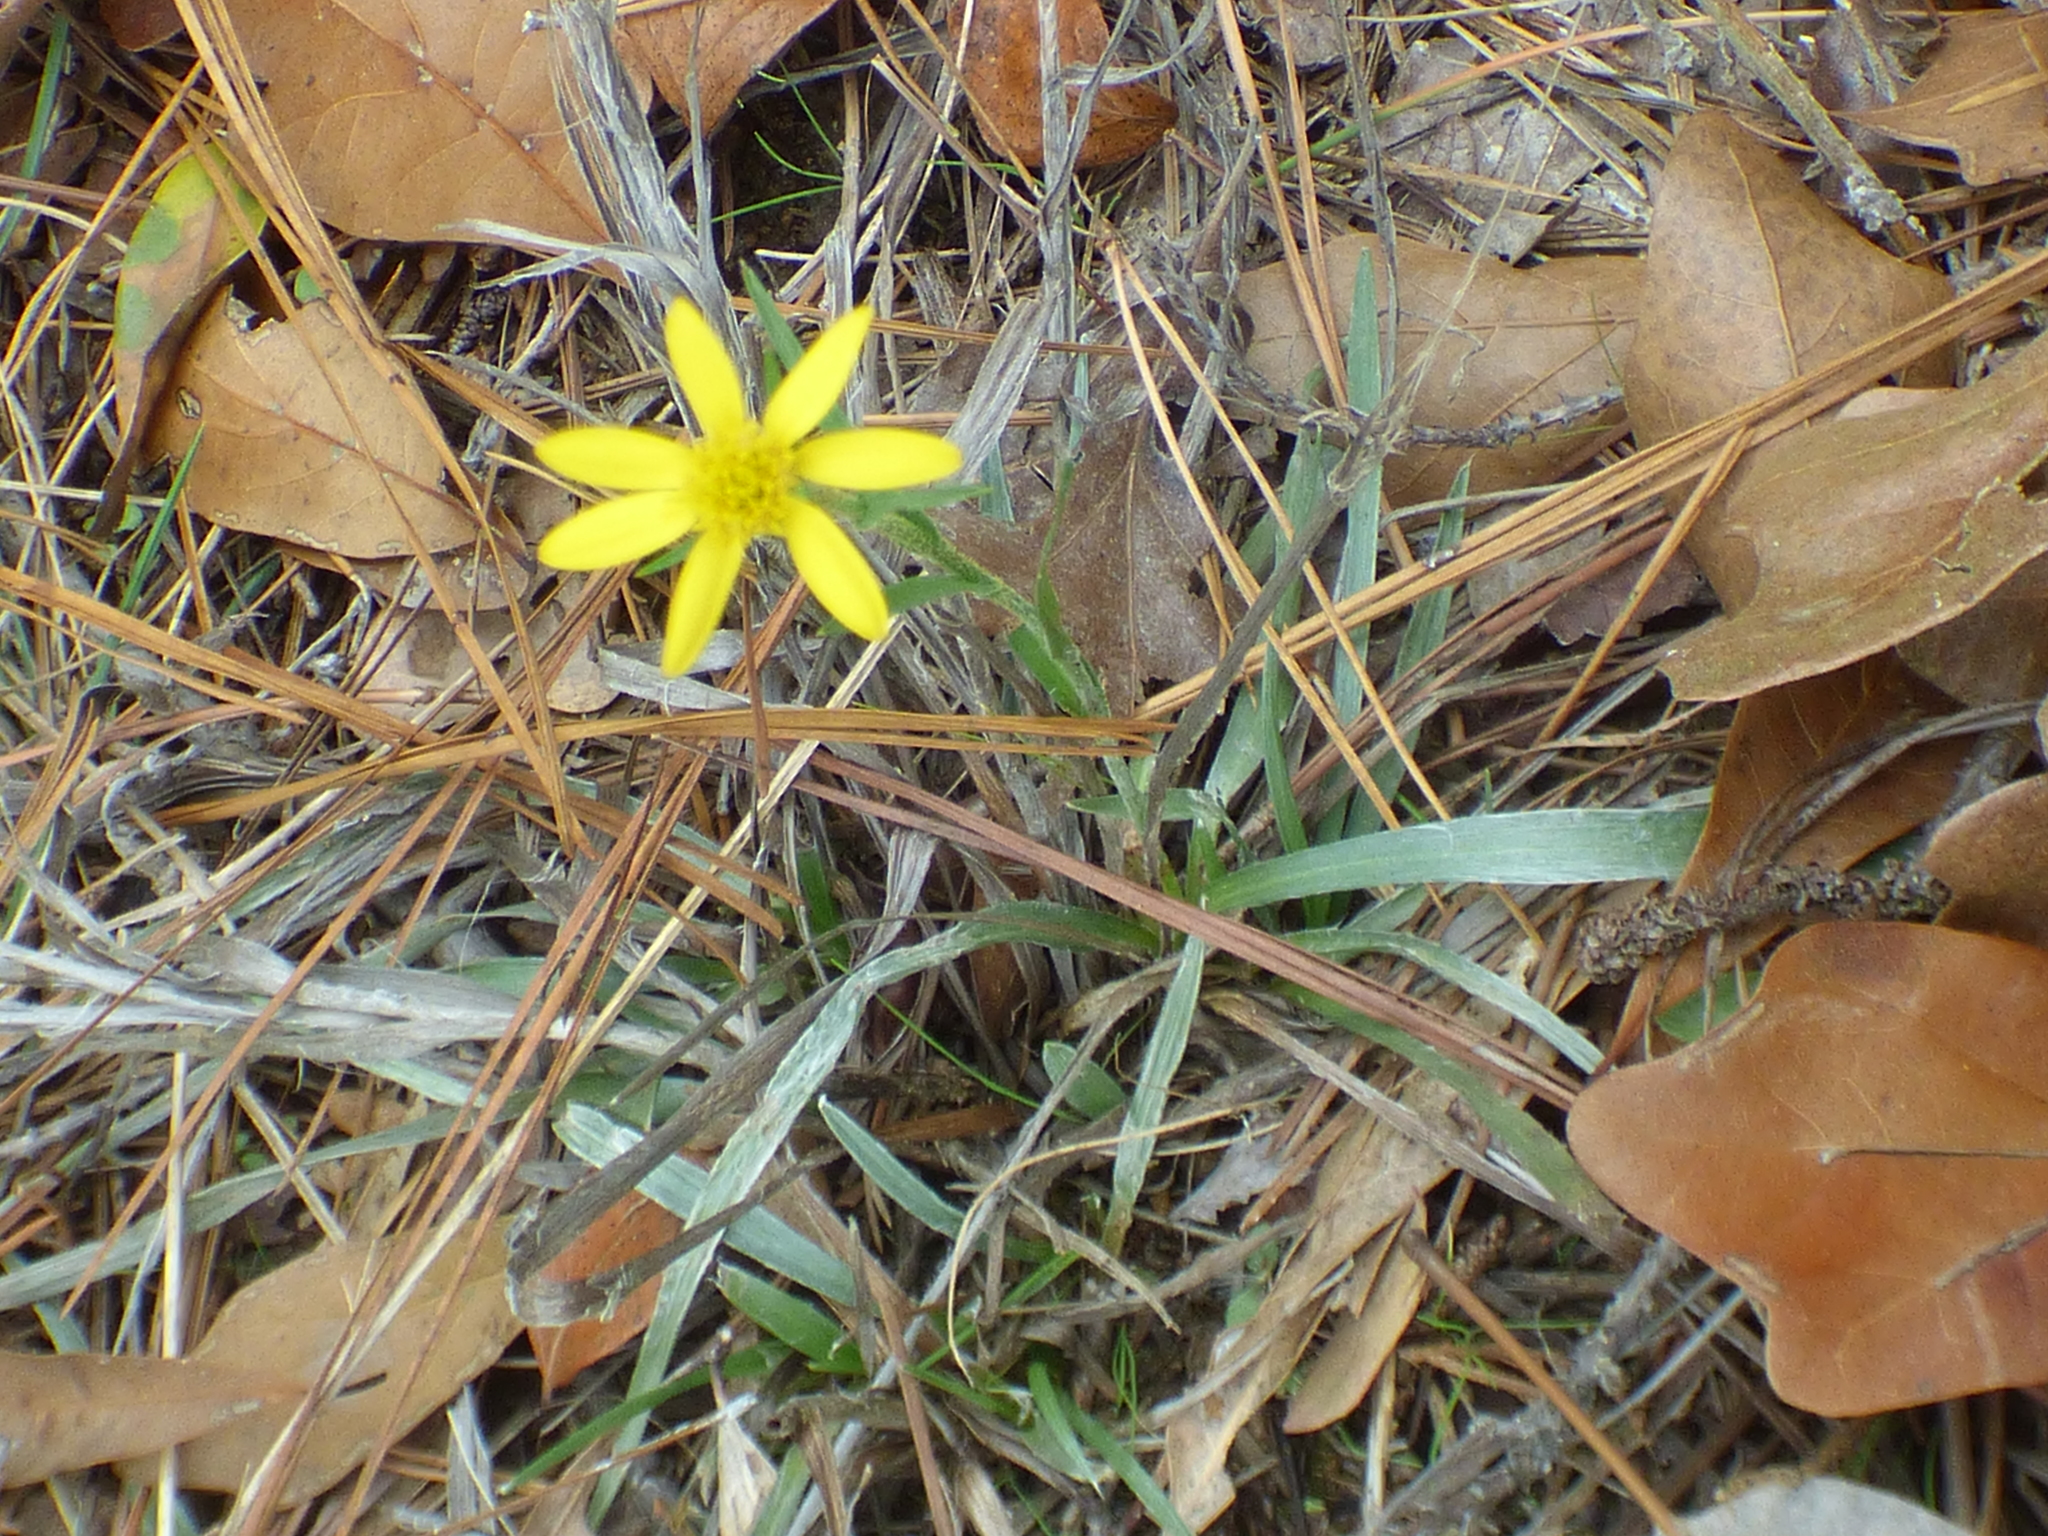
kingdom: Plantae
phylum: Tracheophyta
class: Magnoliopsida
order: Asterales
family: Asteraceae
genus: Pityopsis
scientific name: Pityopsis aspera
